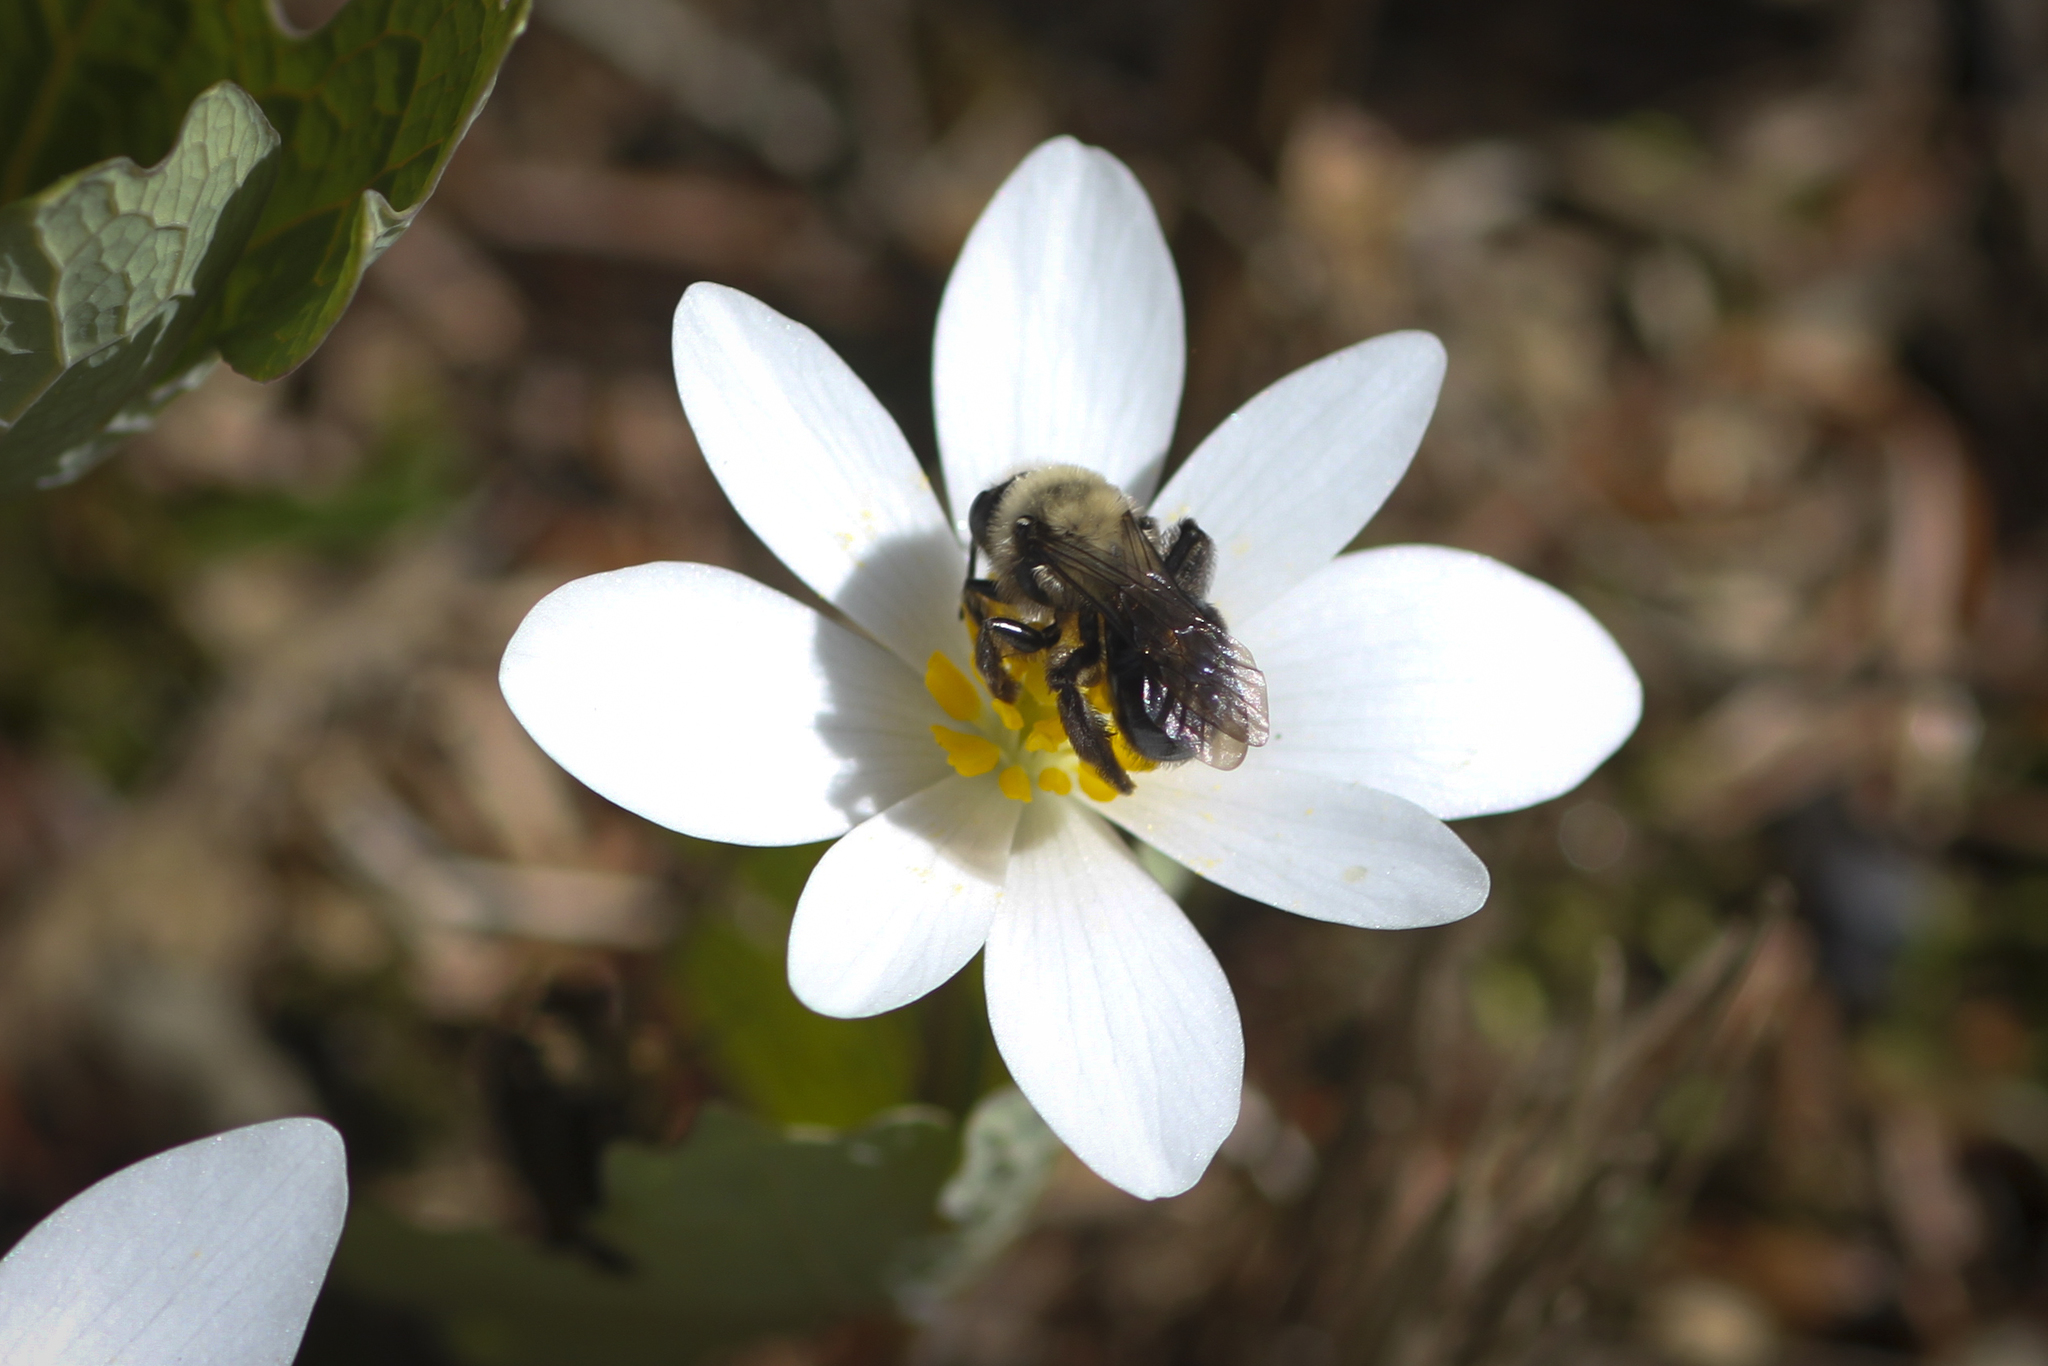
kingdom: Animalia
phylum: Arthropoda
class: Insecta
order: Hymenoptera
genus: Melandrena
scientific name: Melandrena
